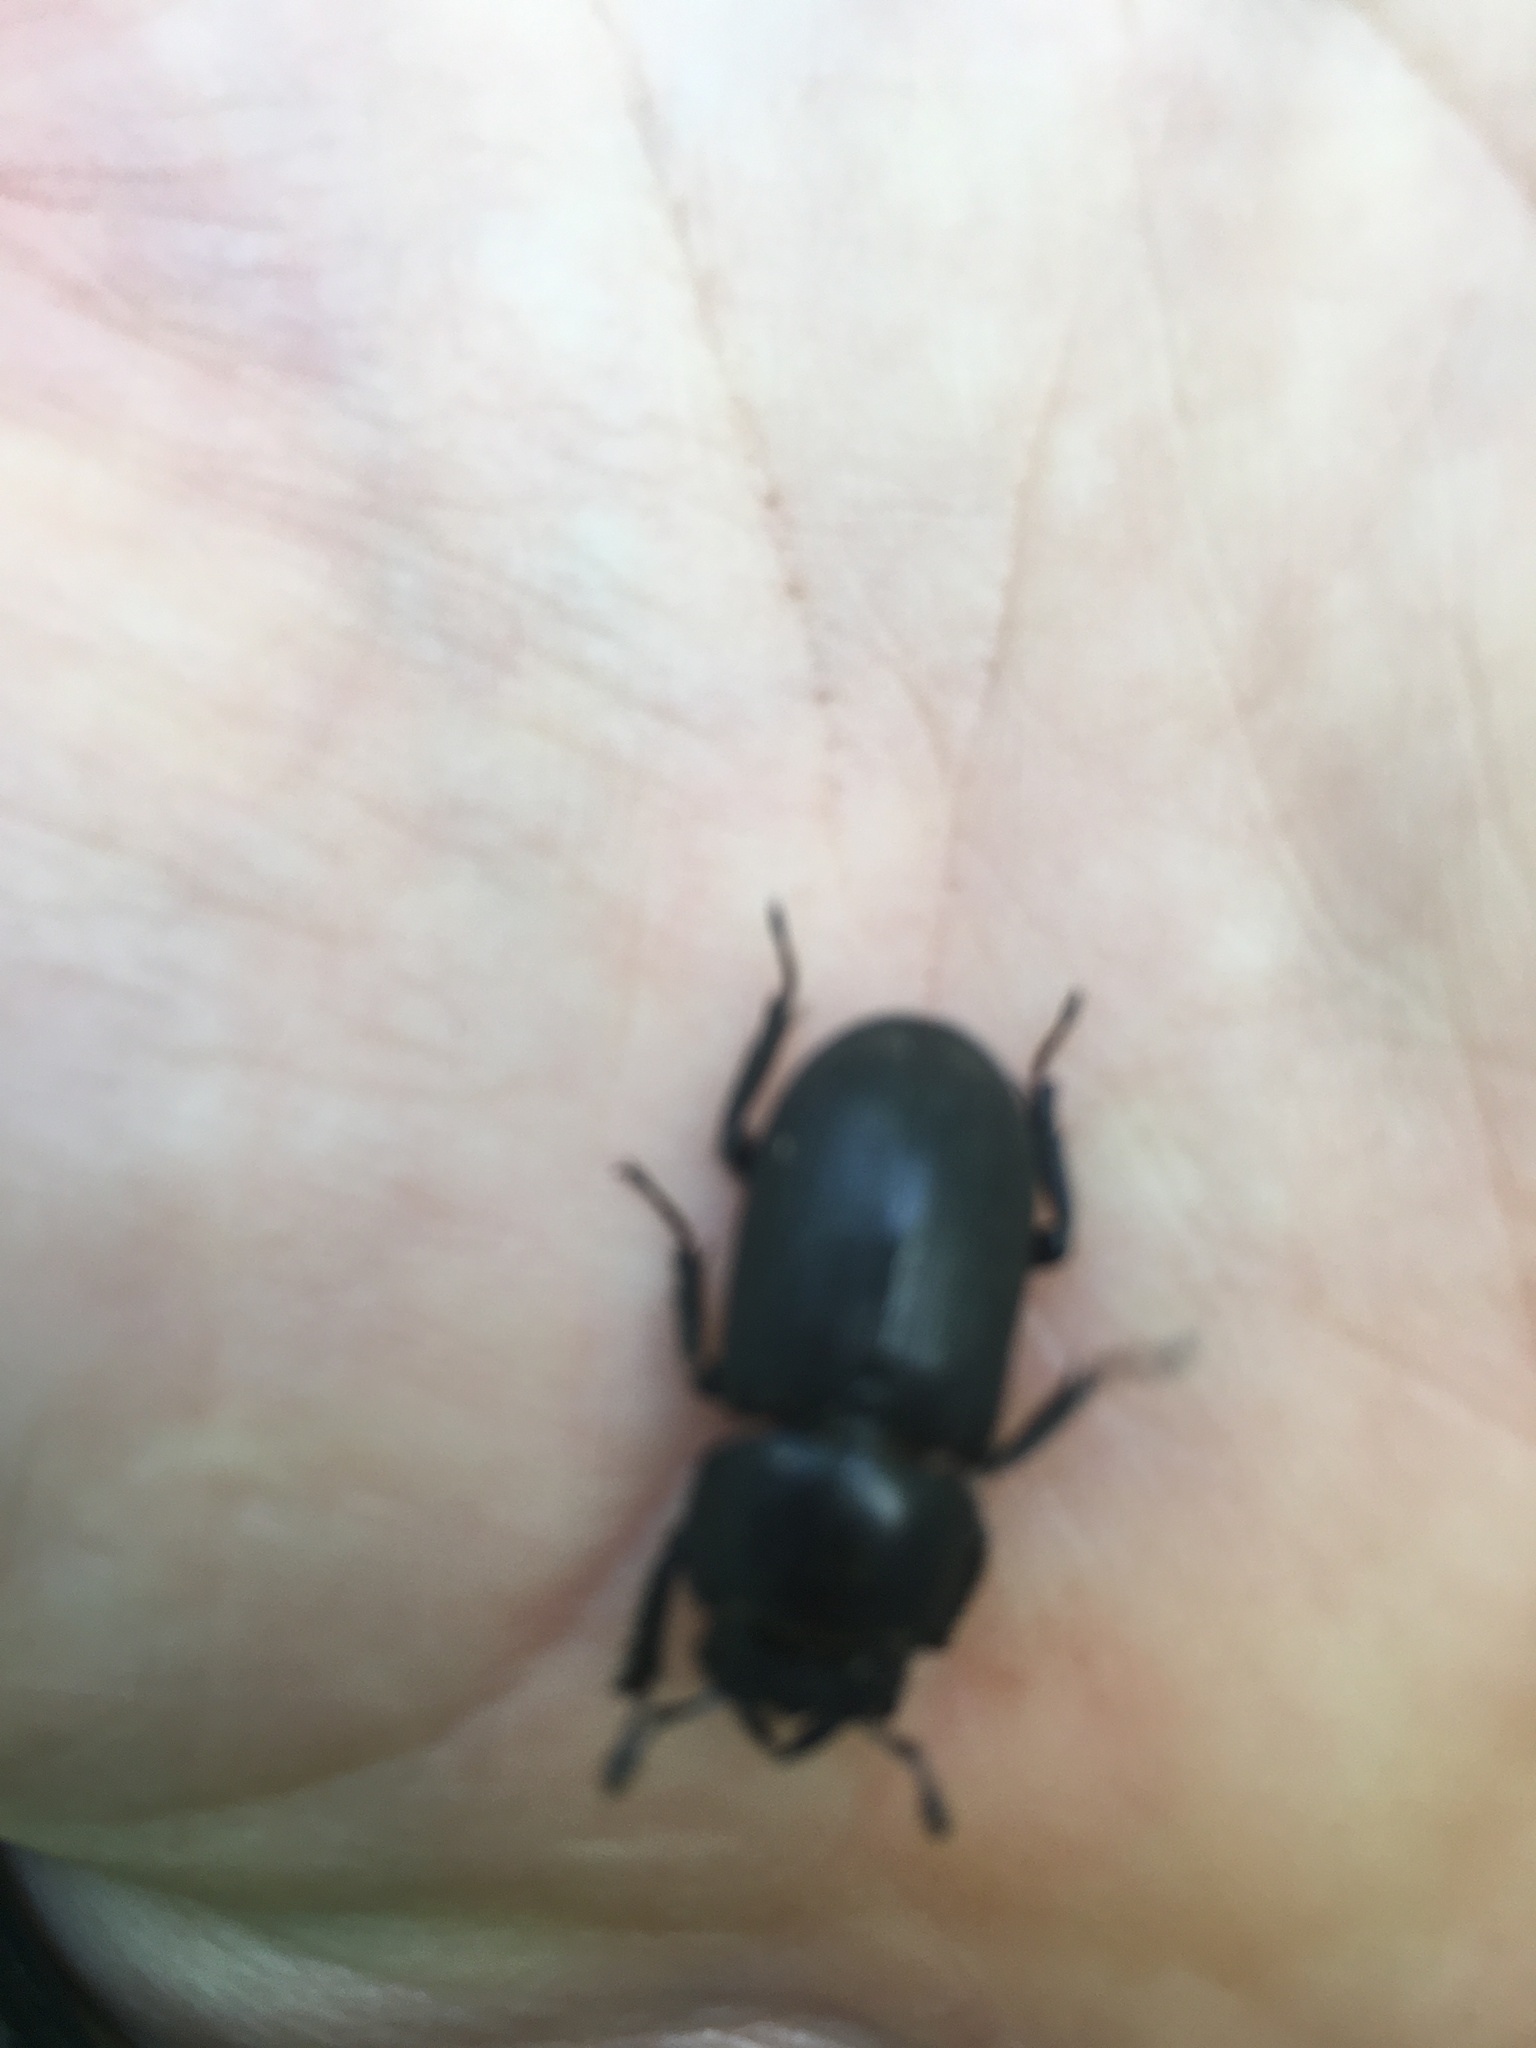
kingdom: Animalia
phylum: Arthropoda
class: Insecta
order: Coleoptera
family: Lucanidae
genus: Dorcus
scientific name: Dorcus parallelipipedus
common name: Lesser stag beetle
